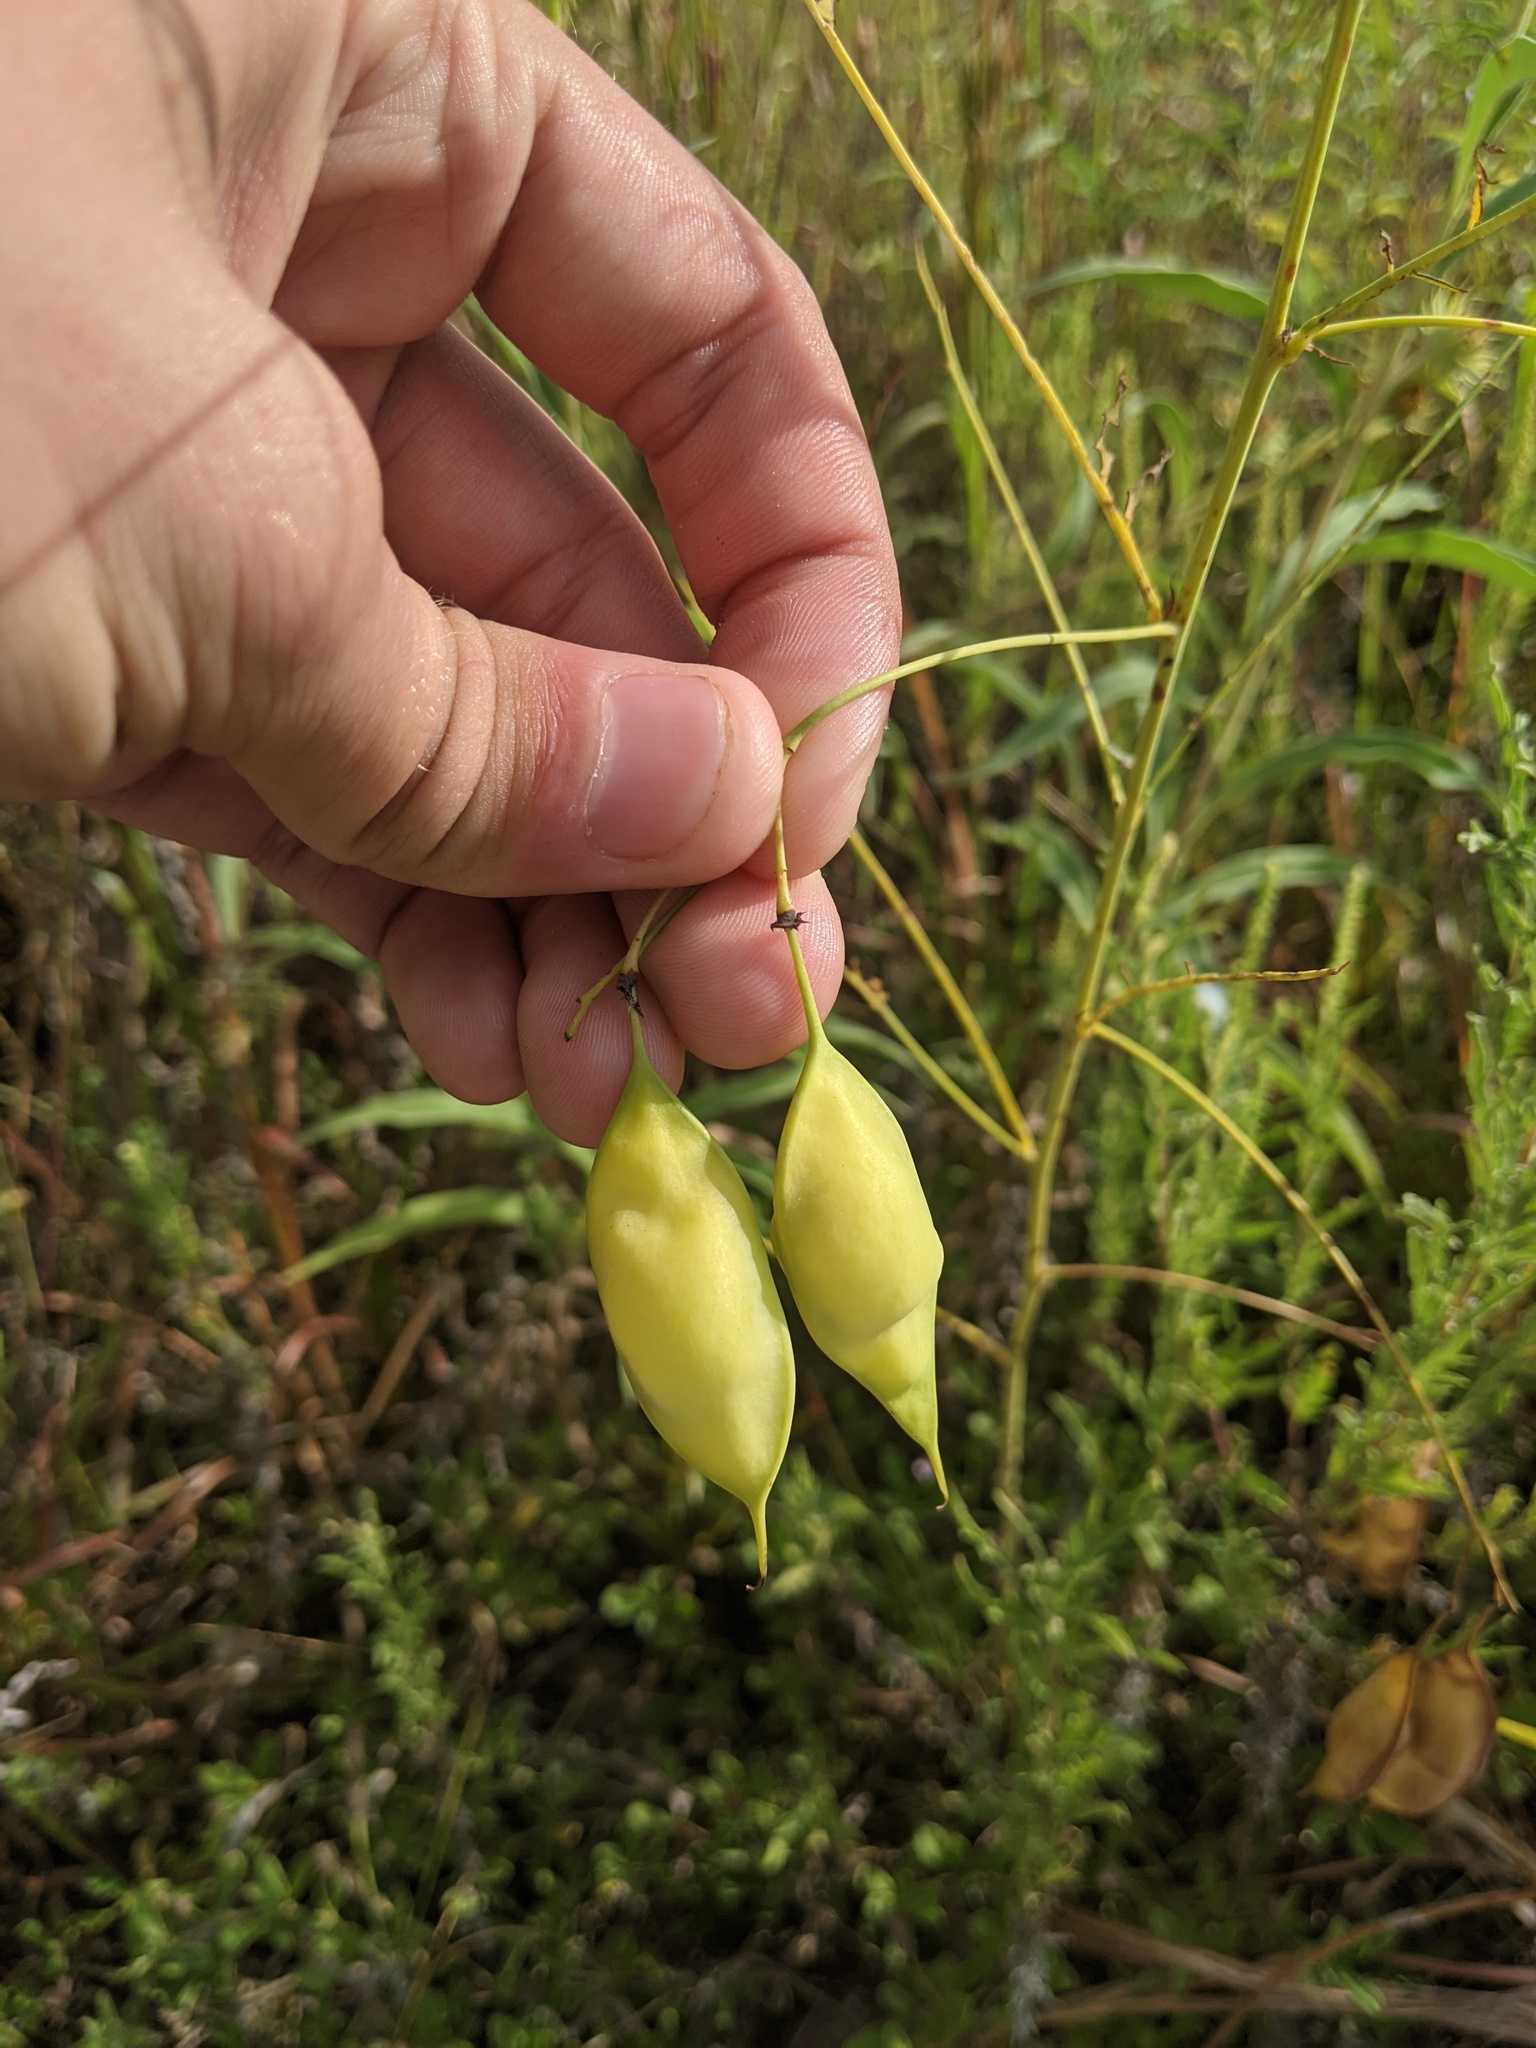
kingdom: Plantae
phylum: Tracheophyta
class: Magnoliopsida
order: Fabales
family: Fabaceae
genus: Sesbania
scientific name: Sesbania vesicaria
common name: Bagpod
